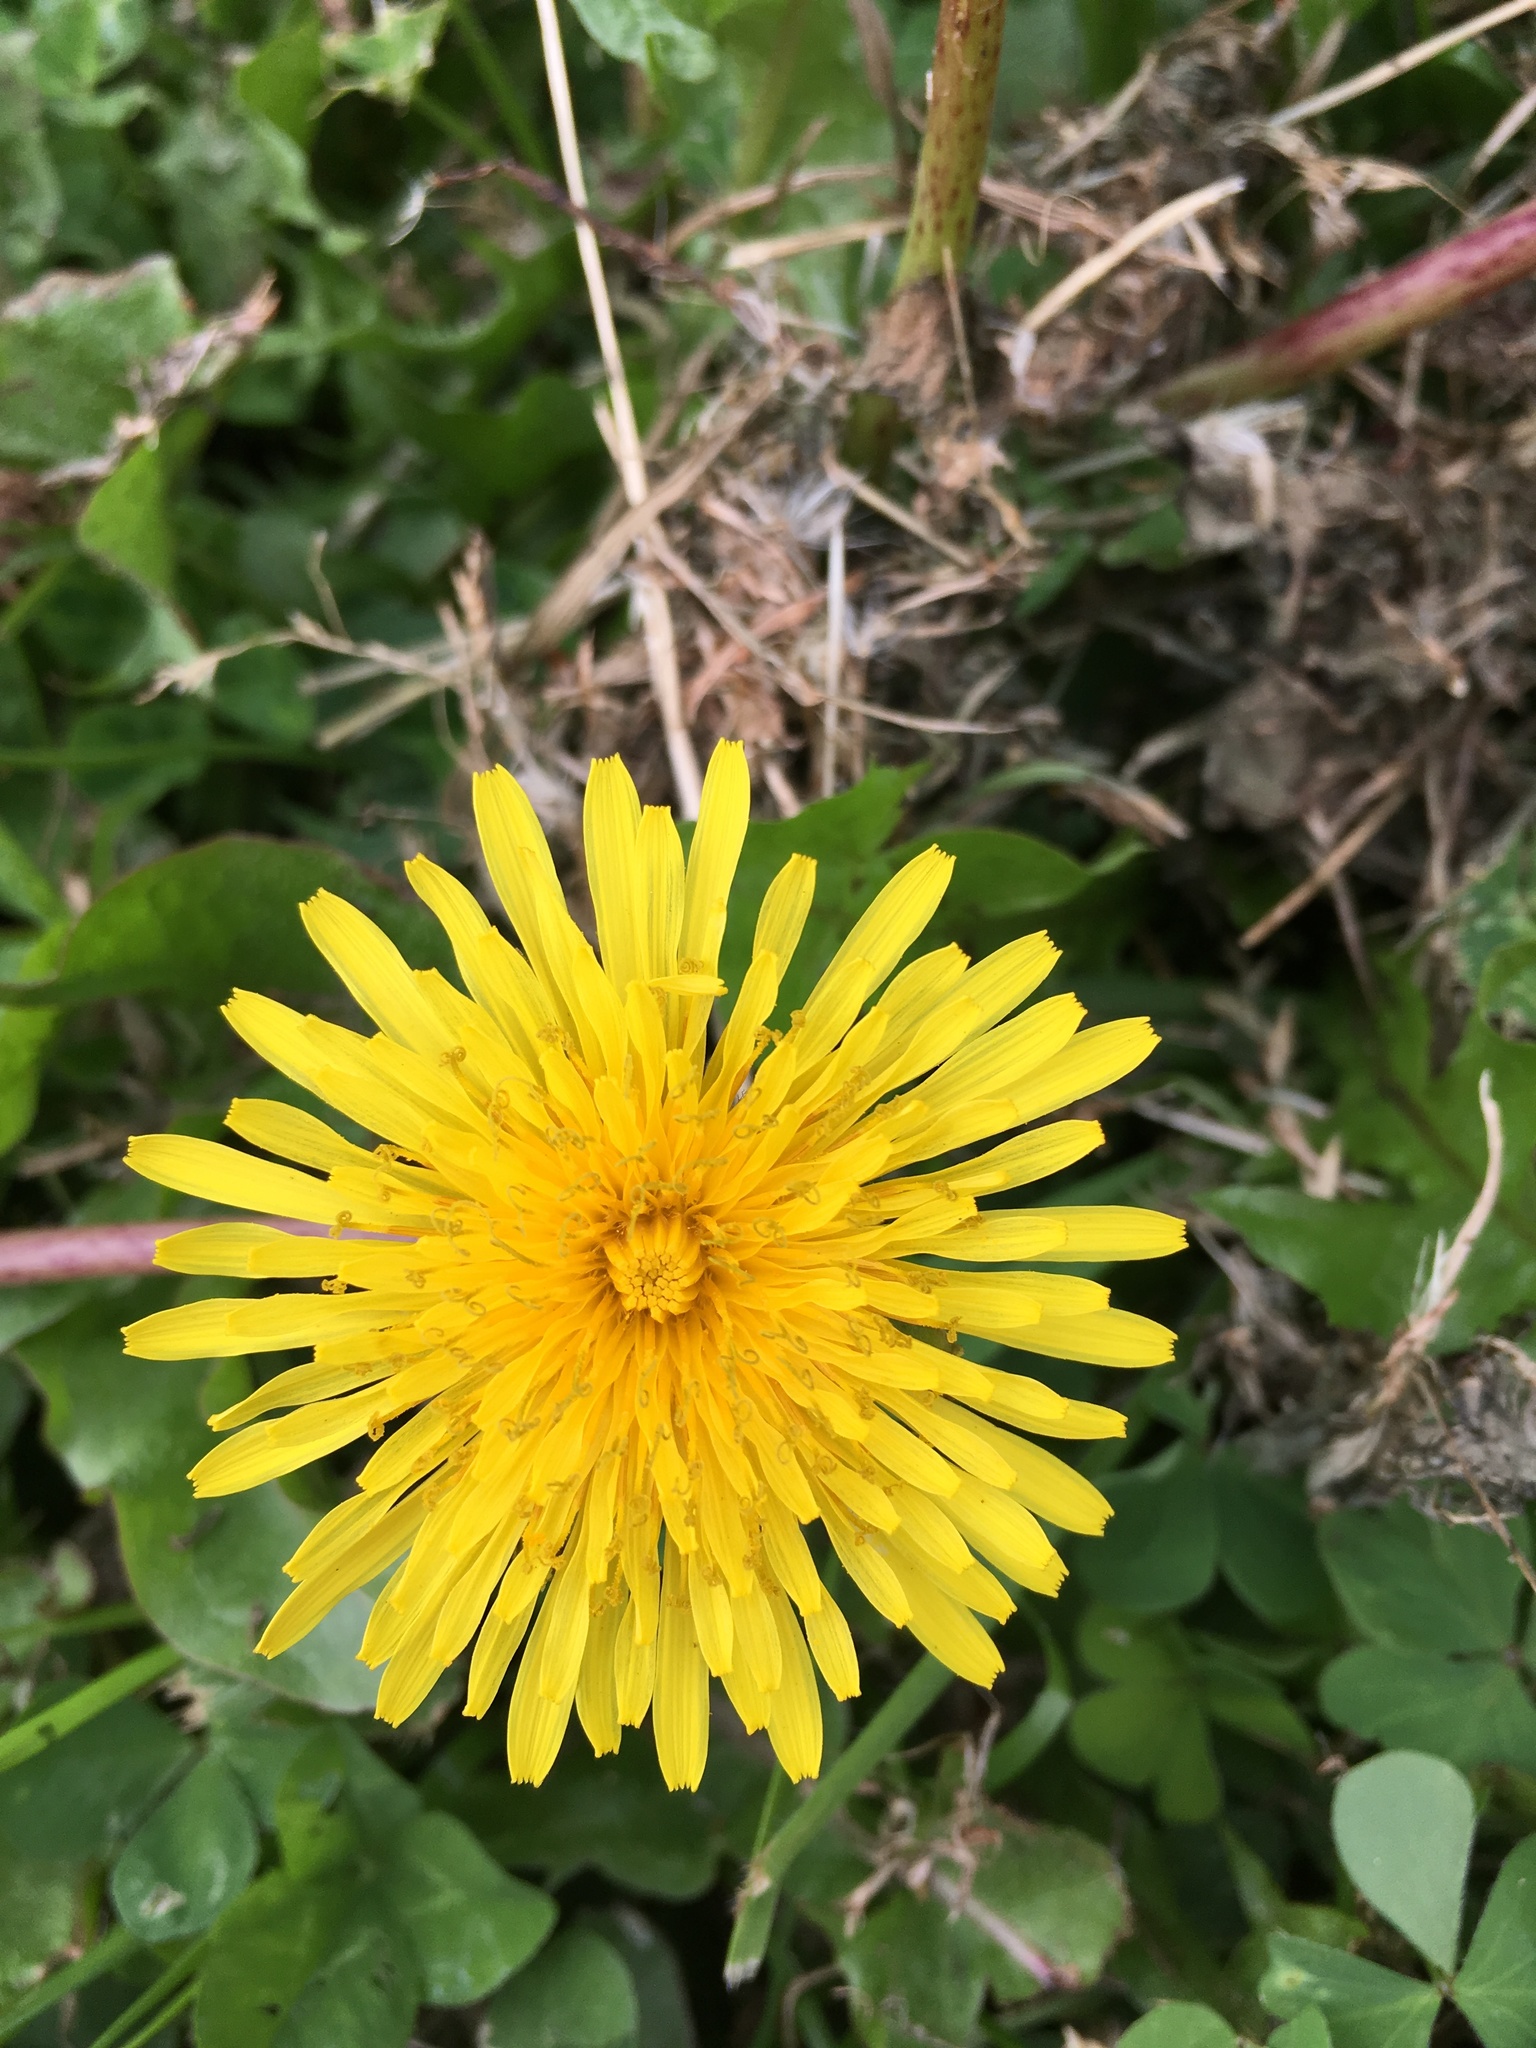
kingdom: Plantae
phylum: Tracheophyta
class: Magnoliopsida
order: Asterales
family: Asteraceae
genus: Taraxacum
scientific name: Taraxacum officinale
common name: Common dandelion
